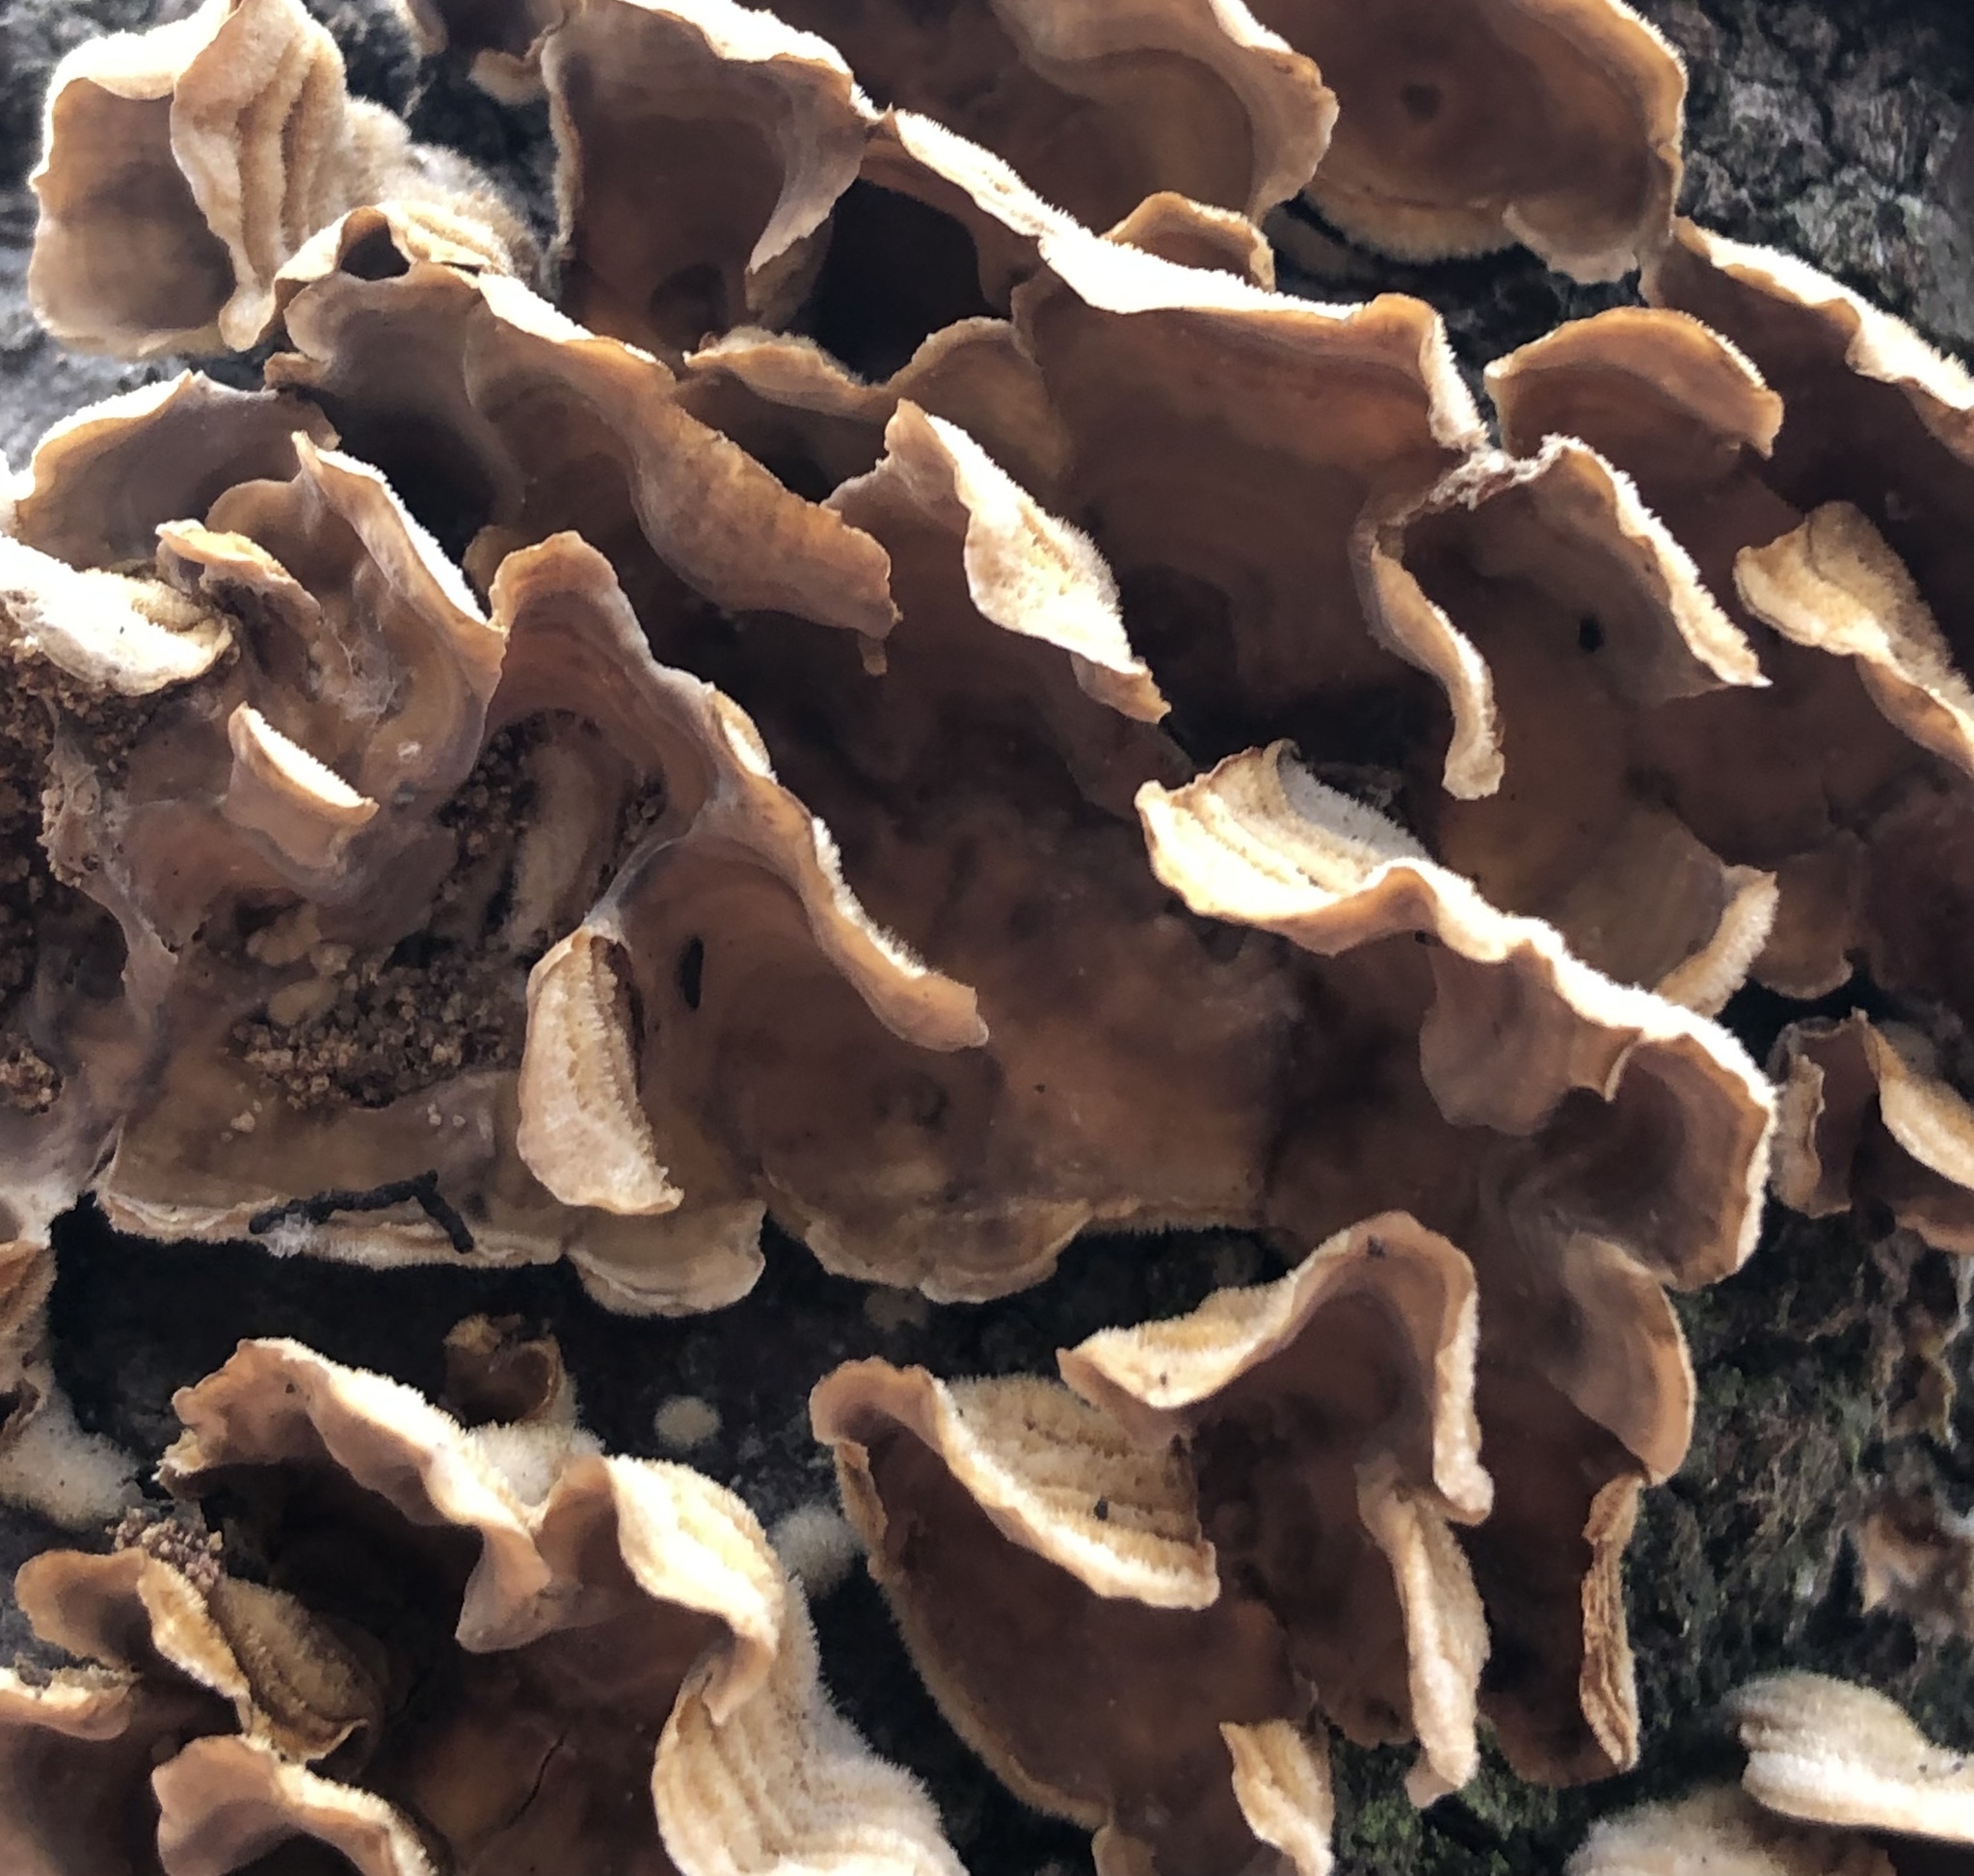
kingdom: Fungi
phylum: Basidiomycota
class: Agaricomycetes
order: Russulales
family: Stereaceae
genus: Stereum
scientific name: Stereum hirsutum
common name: Hairy curtain crust
